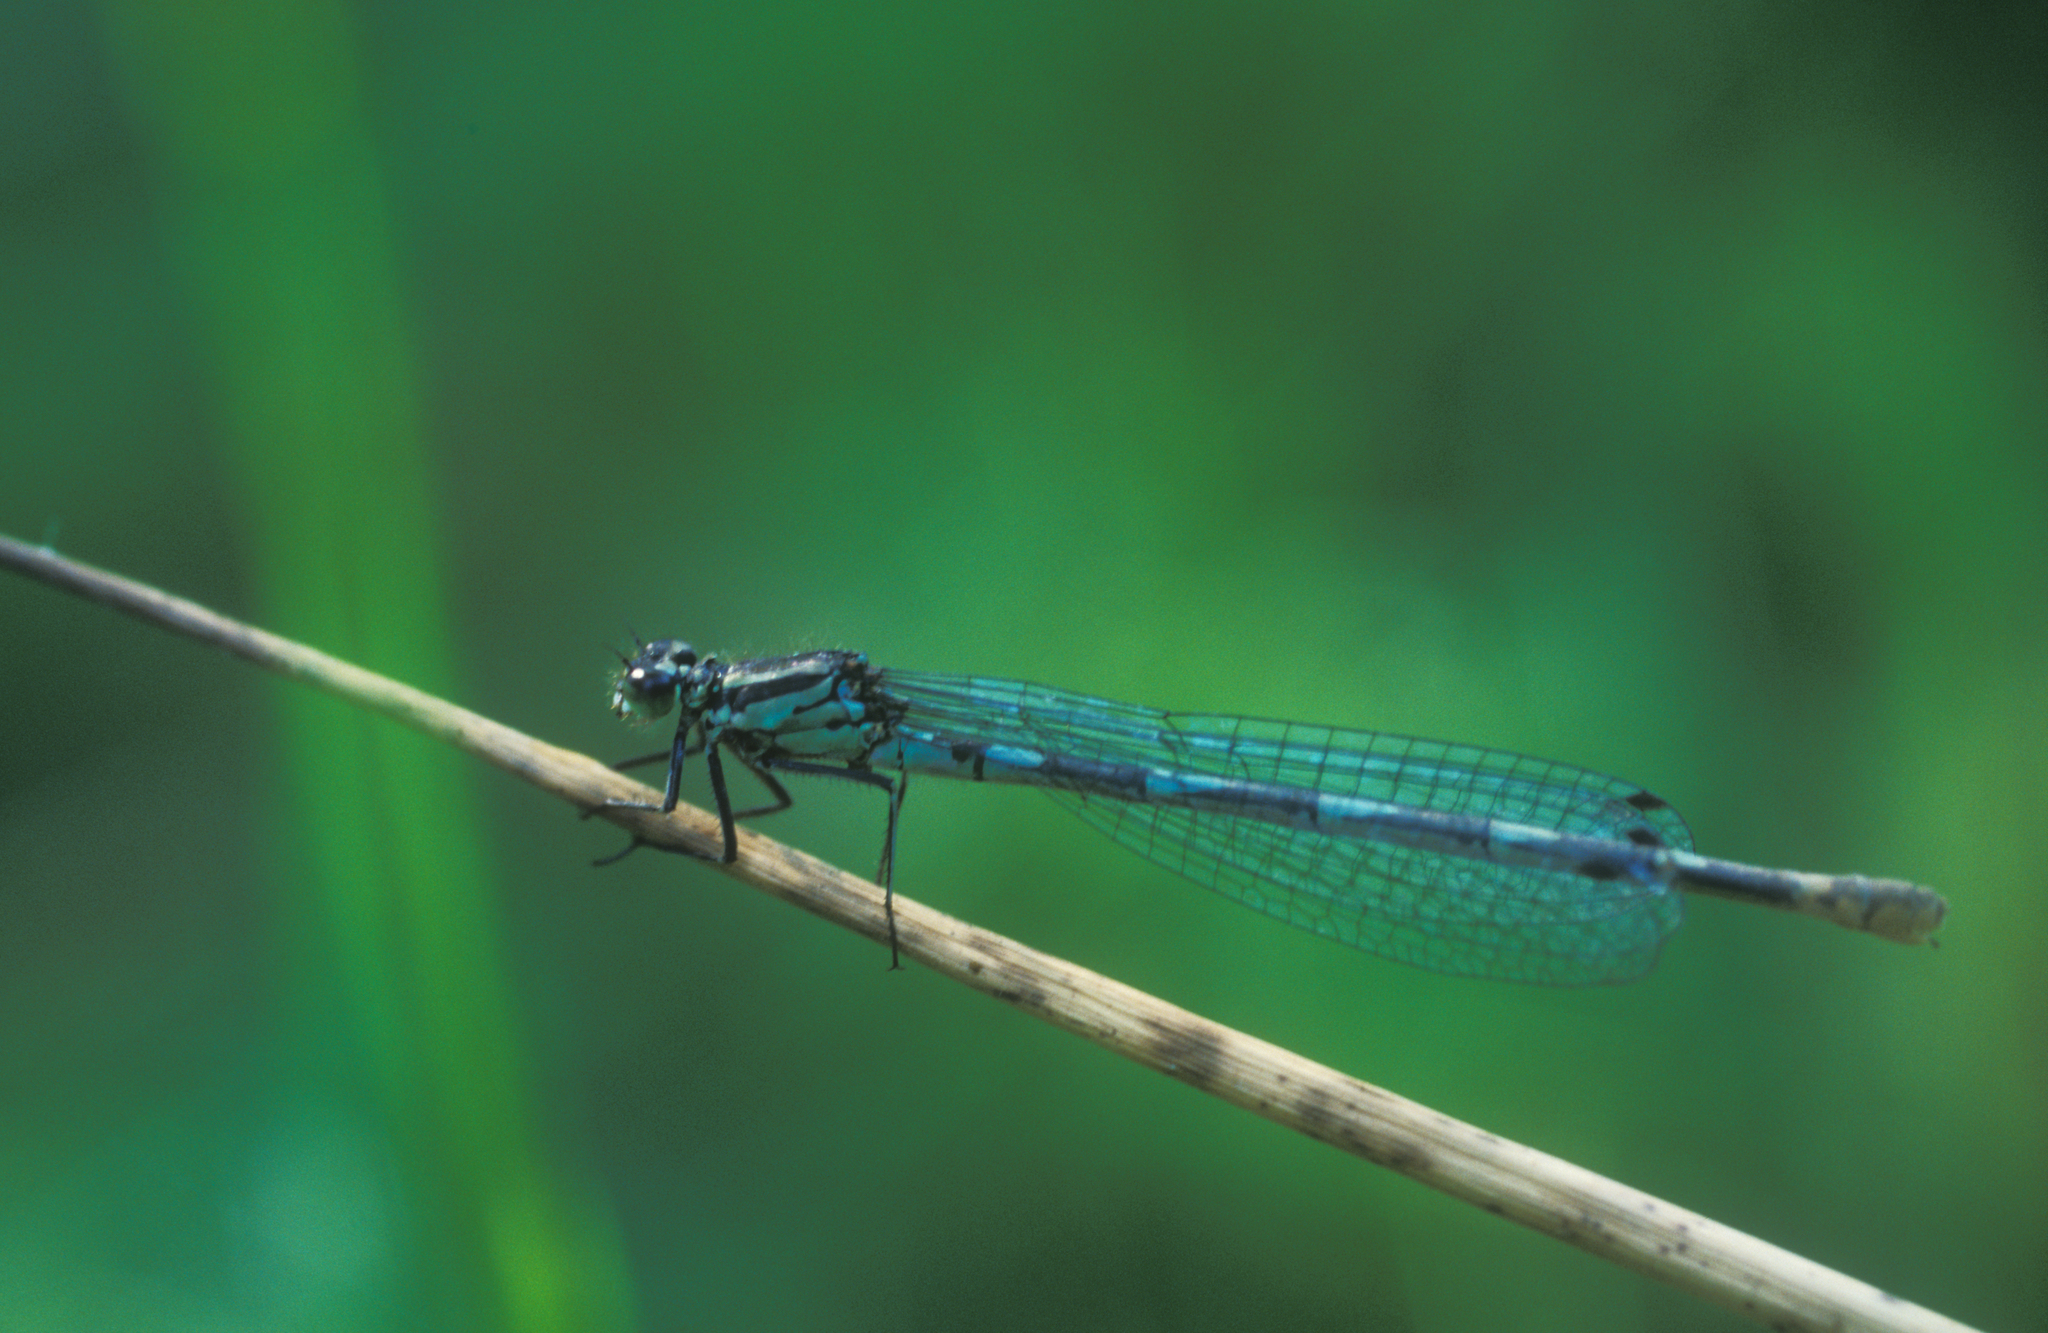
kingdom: Animalia
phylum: Arthropoda
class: Insecta
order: Odonata
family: Coenagrionidae
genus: Coenagrion
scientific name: Coenagrion pulchellum
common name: Variable bluet
